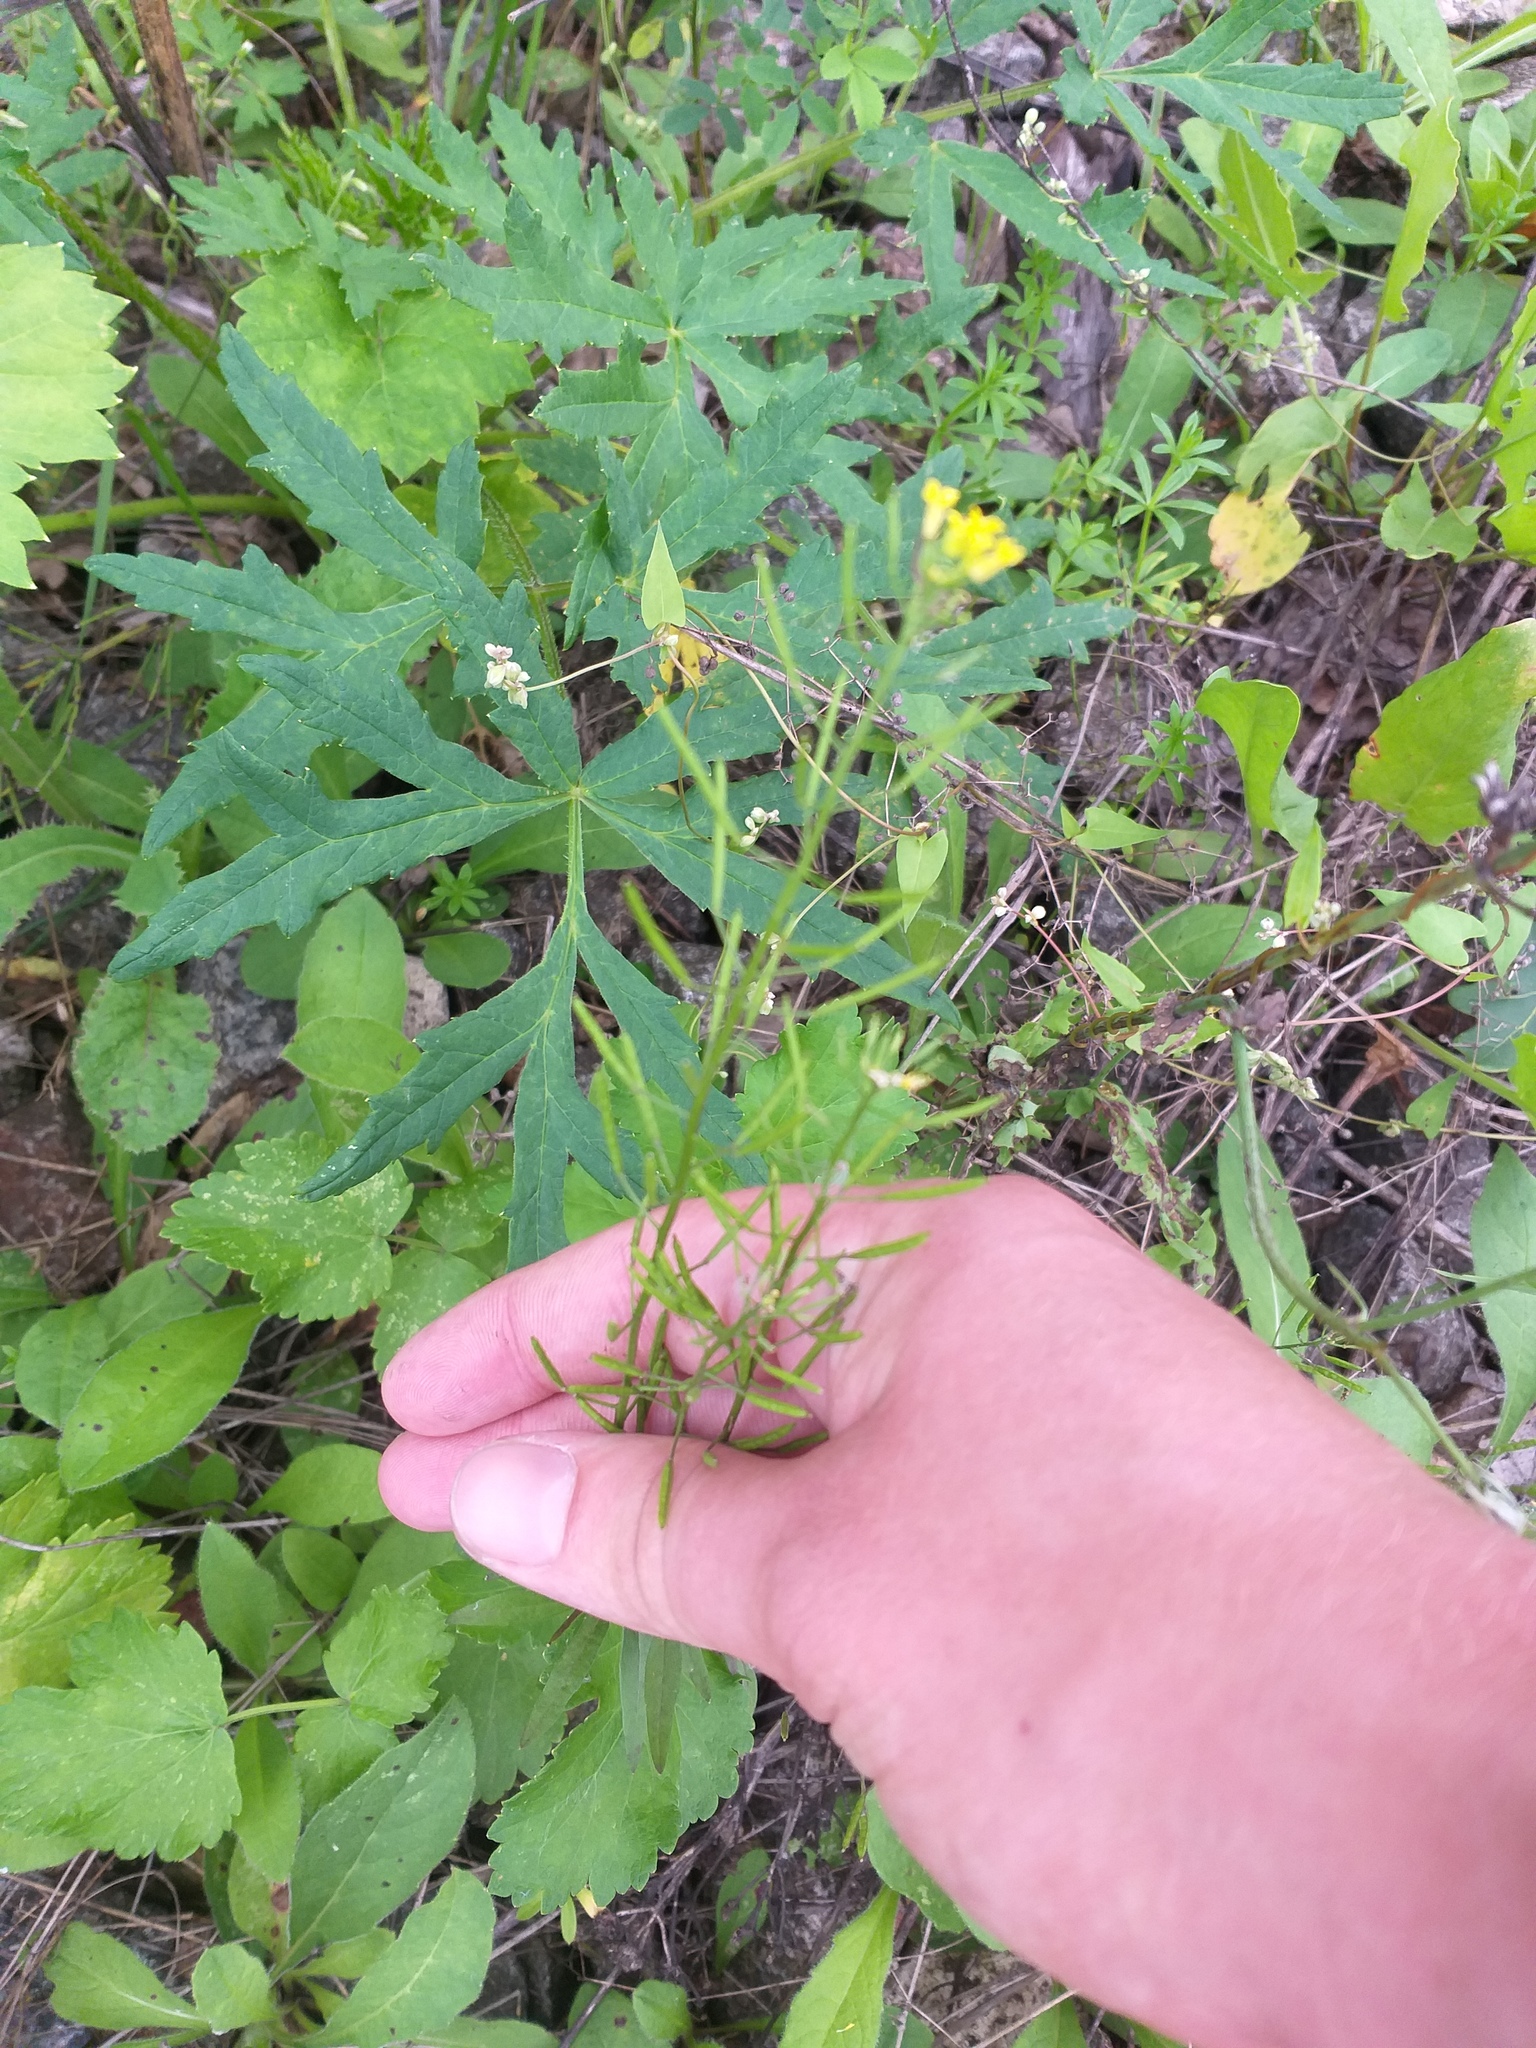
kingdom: Plantae
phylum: Tracheophyta
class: Magnoliopsida
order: Brassicales
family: Brassicaceae
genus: Erysimum
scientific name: Erysimum cheiranthoides
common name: Treacle mustard
